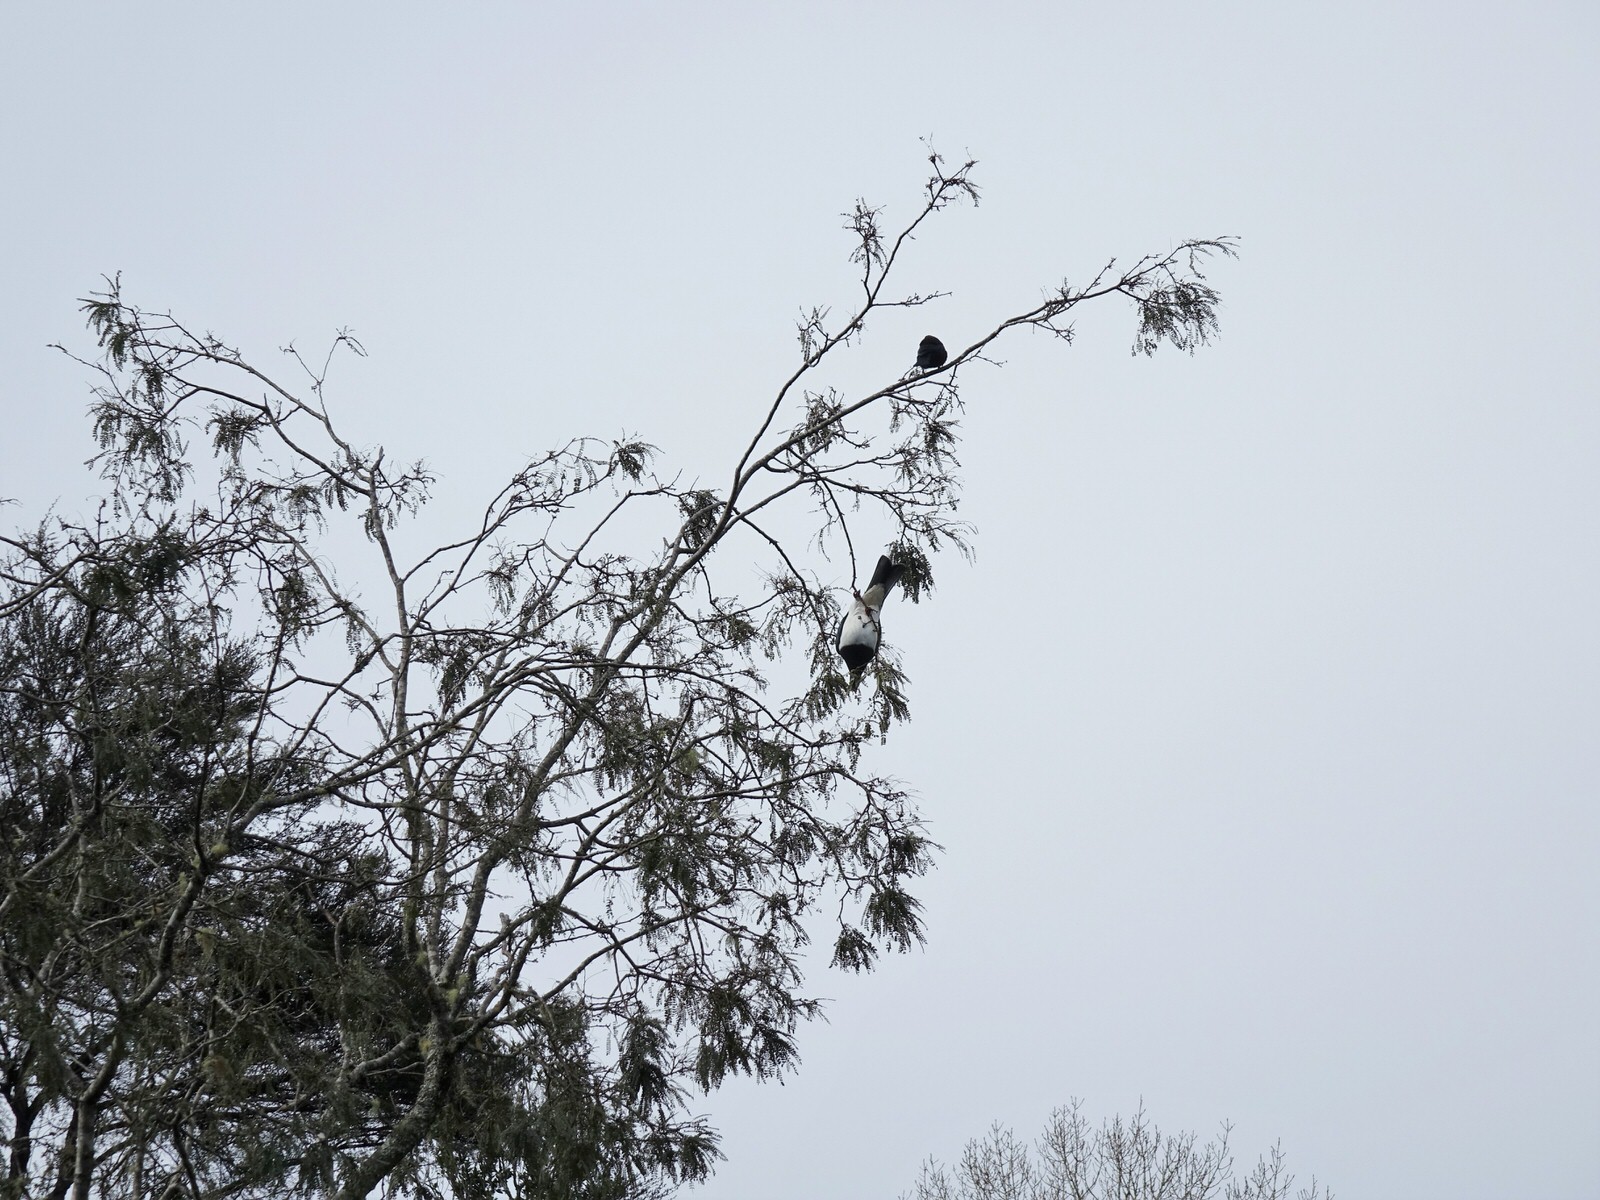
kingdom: Animalia
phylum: Chordata
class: Aves
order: Columbiformes
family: Columbidae
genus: Hemiphaga
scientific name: Hemiphaga novaeseelandiae
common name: New zealand pigeon
